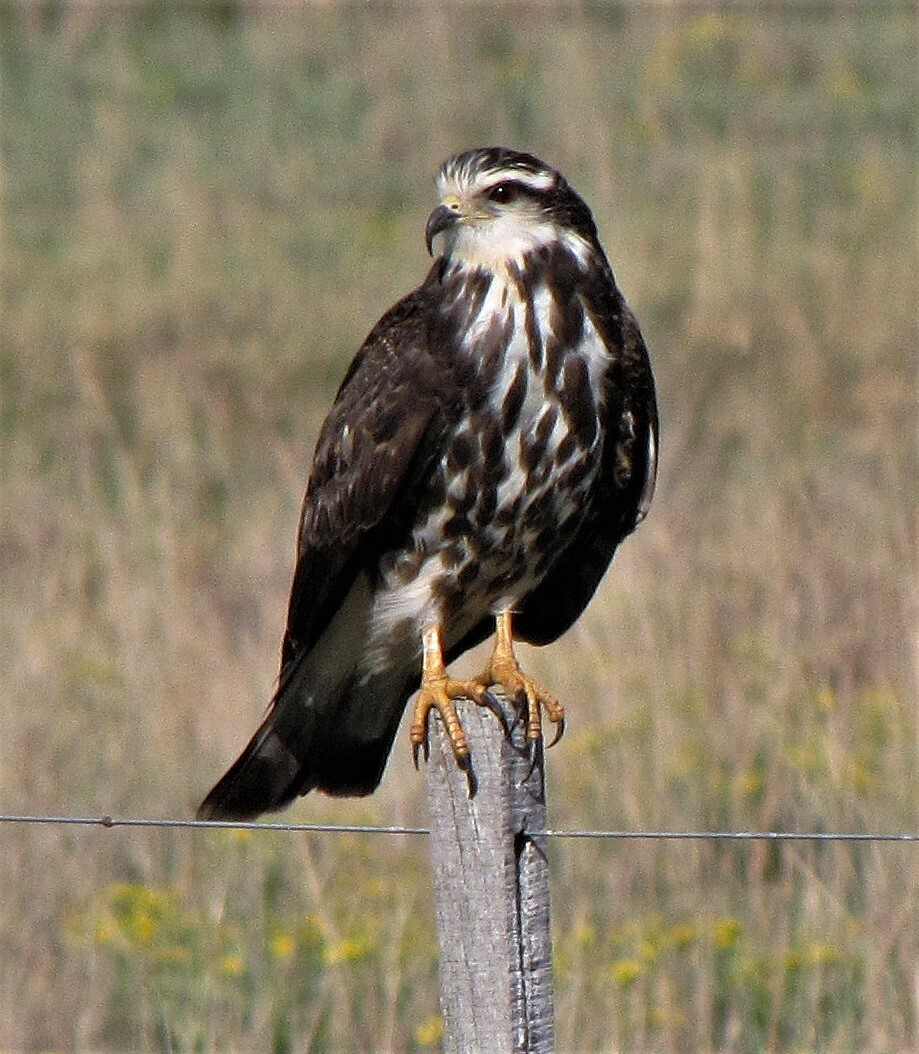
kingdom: Animalia
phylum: Chordata
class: Aves
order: Accipitriformes
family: Accipitridae
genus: Rostrhamus
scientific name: Rostrhamus sociabilis
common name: Snail kite
